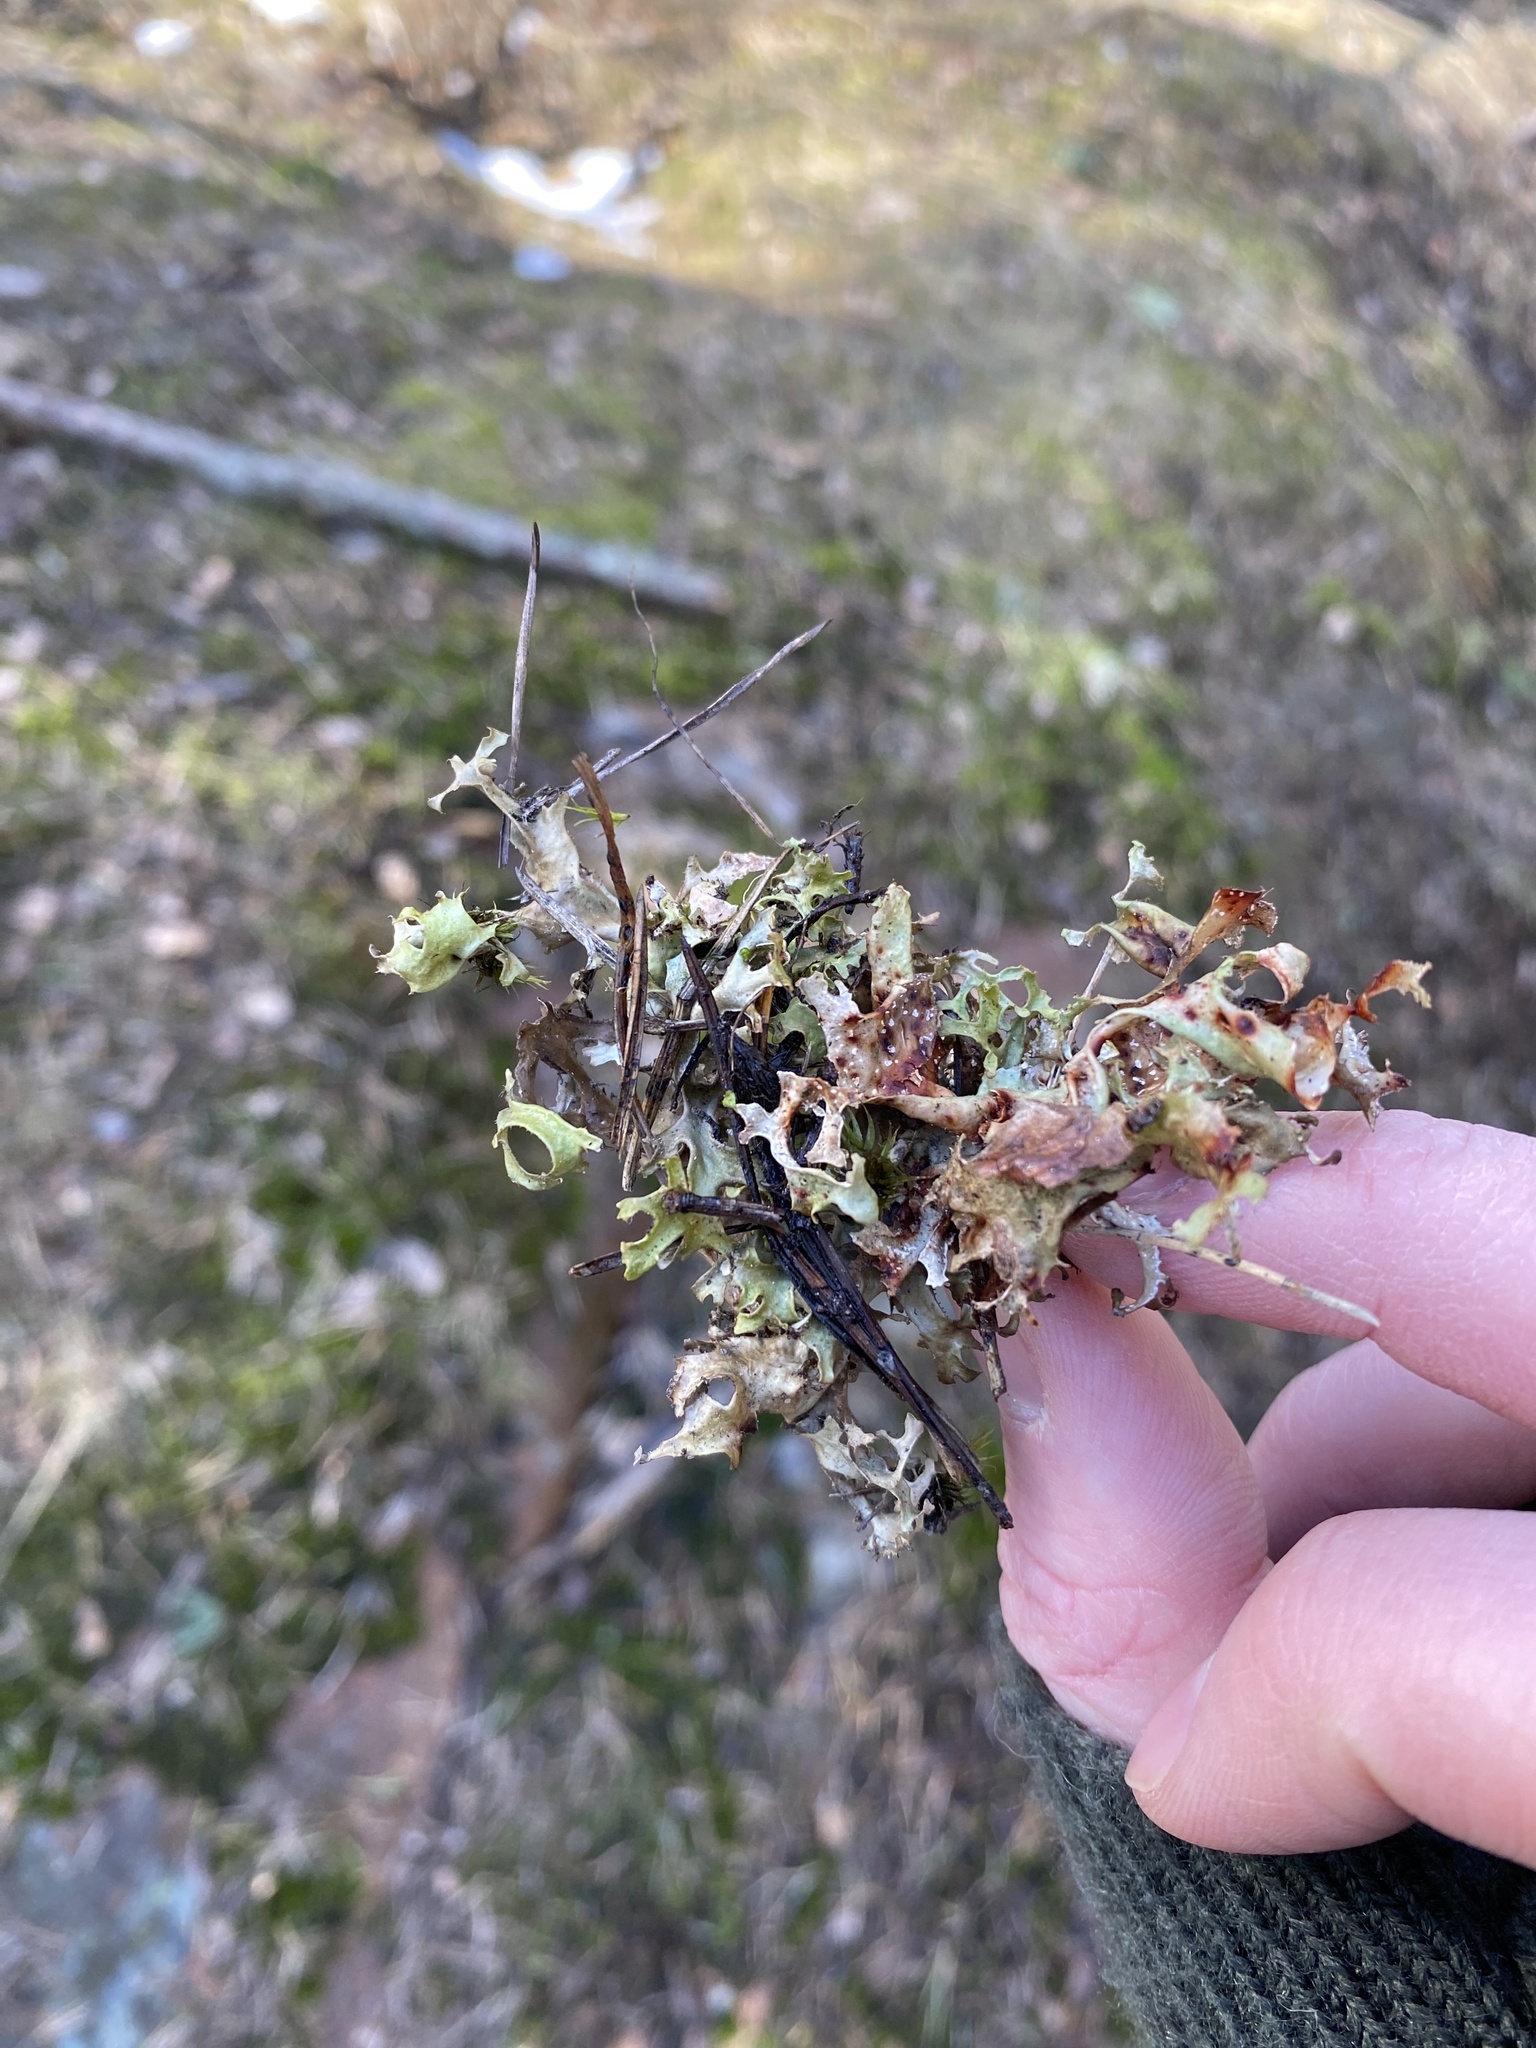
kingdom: Fungi
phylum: Ascomycota
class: Lecanoromycetes
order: Lecanorales
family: Parmeliaceae
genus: Cetraria
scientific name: Cetraria islandica
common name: Iceland lichen
